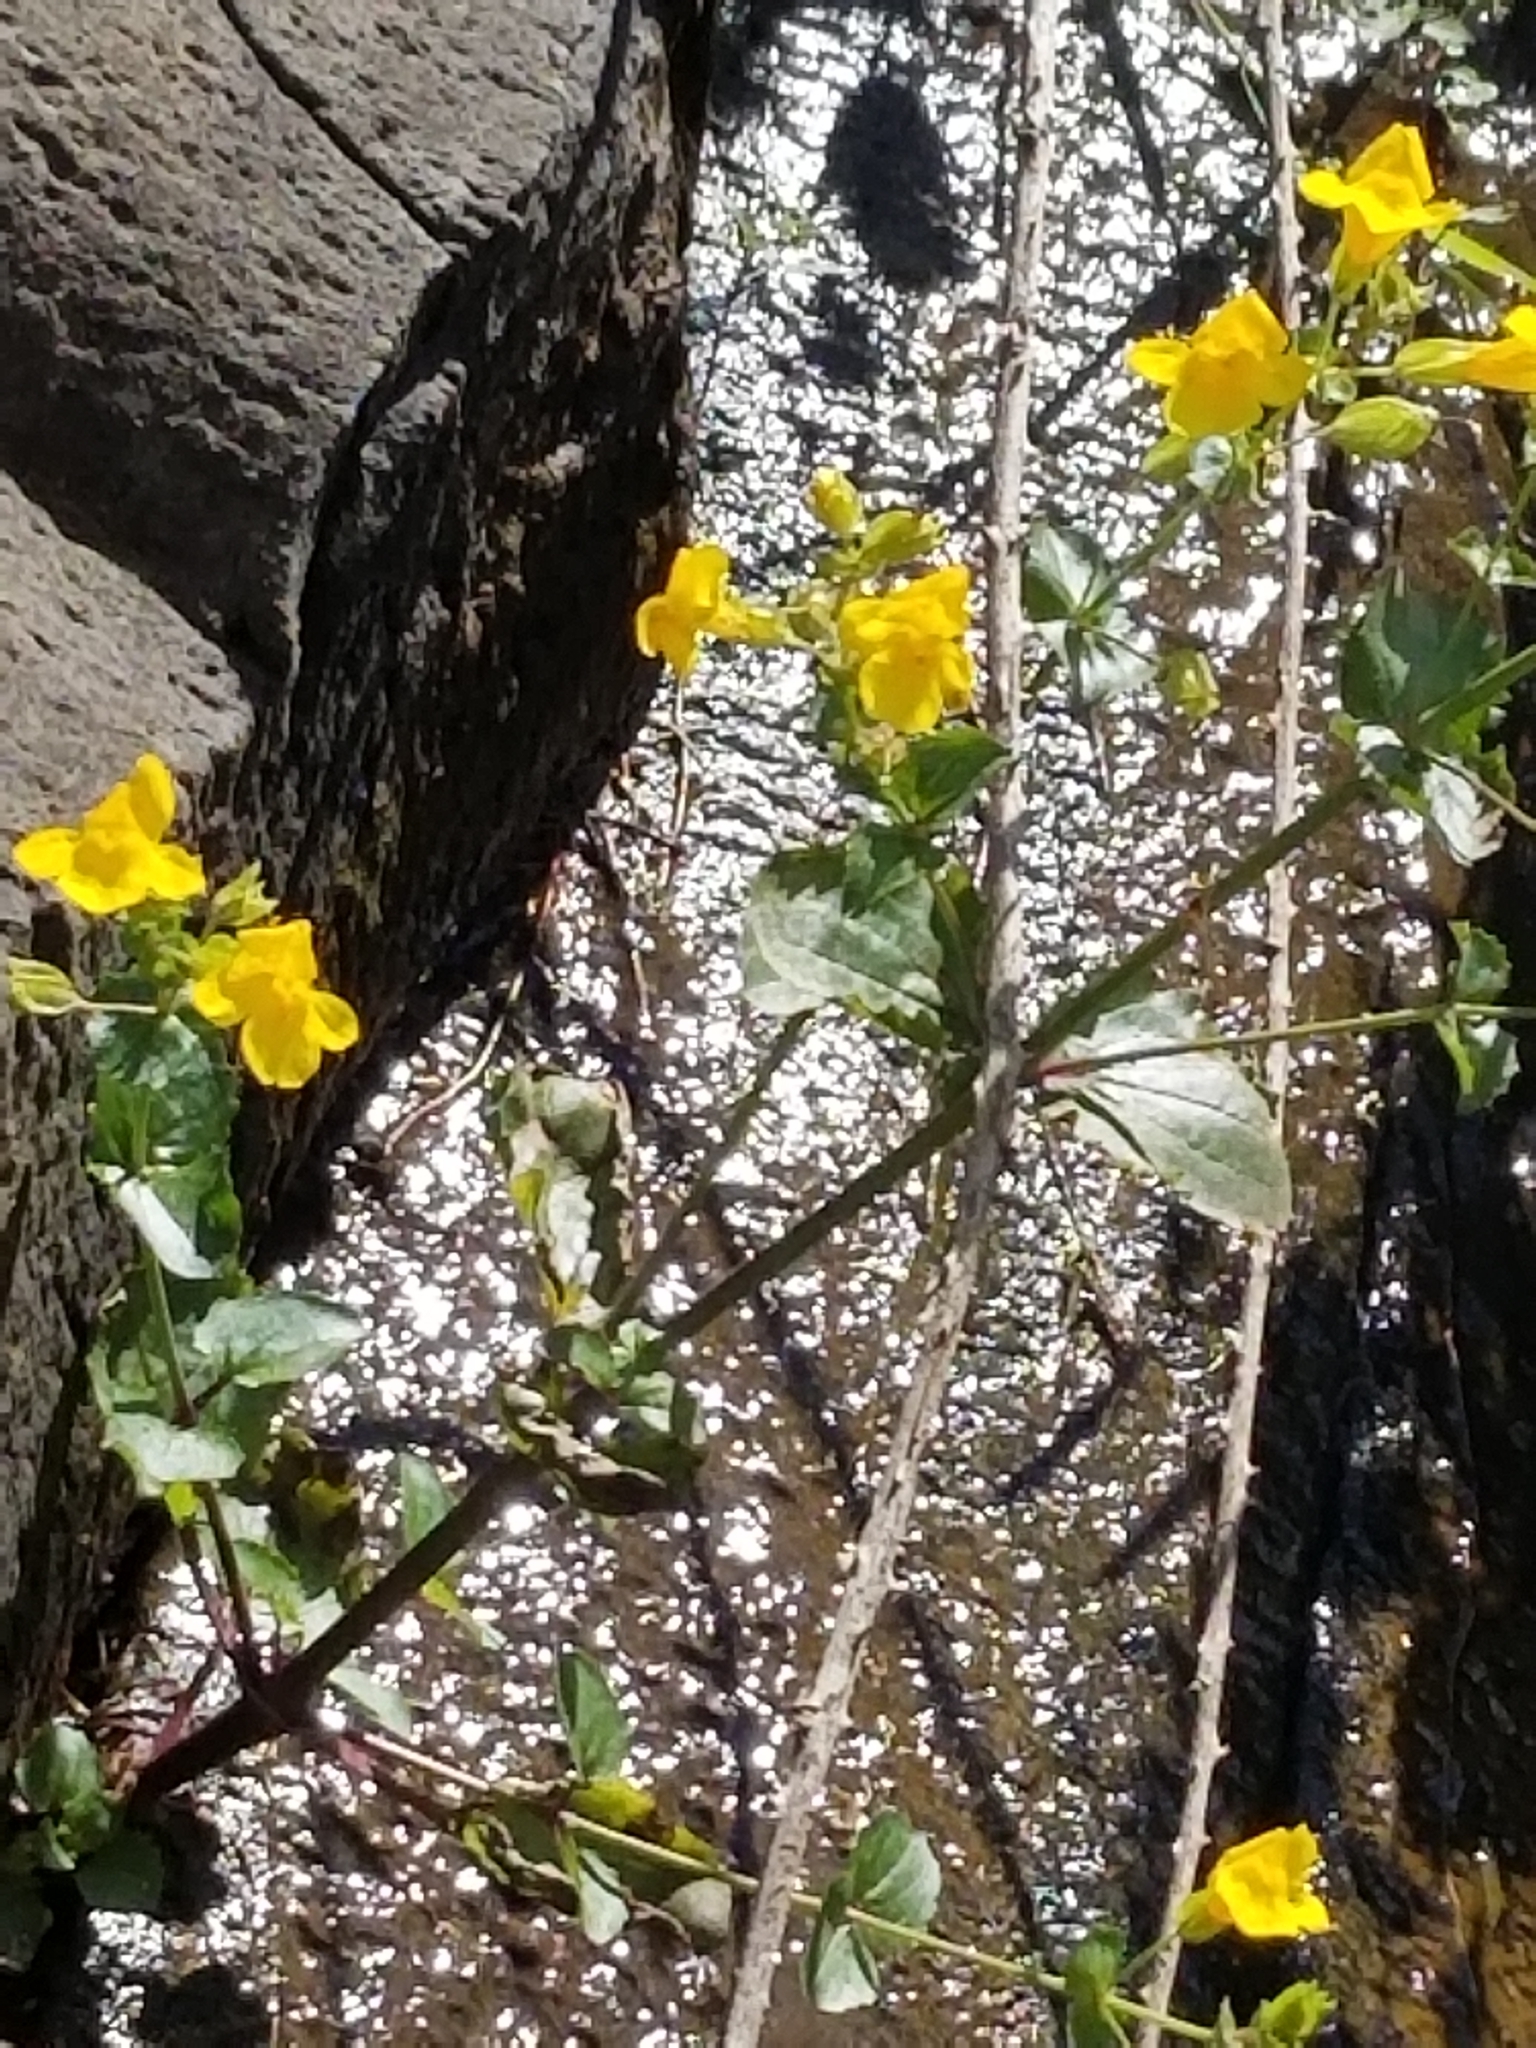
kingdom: Plantae
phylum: Tracheophyta
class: Magnoliopsida
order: Lamiales
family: Phrymaceae
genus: Erythranthe
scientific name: Erythranthe guttata
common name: Monkeyflower
